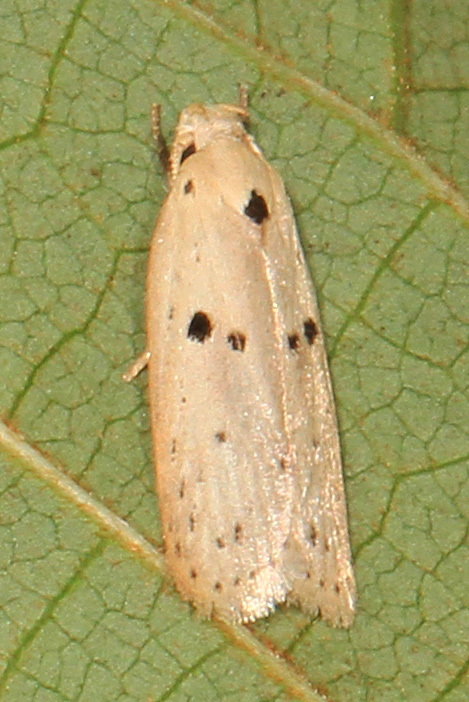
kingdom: Animalia
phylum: Arthropoda
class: Insecta
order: Lepidoptera
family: Peleopodidae
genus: Scythropiodes
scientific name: Scythropiodes issikii
